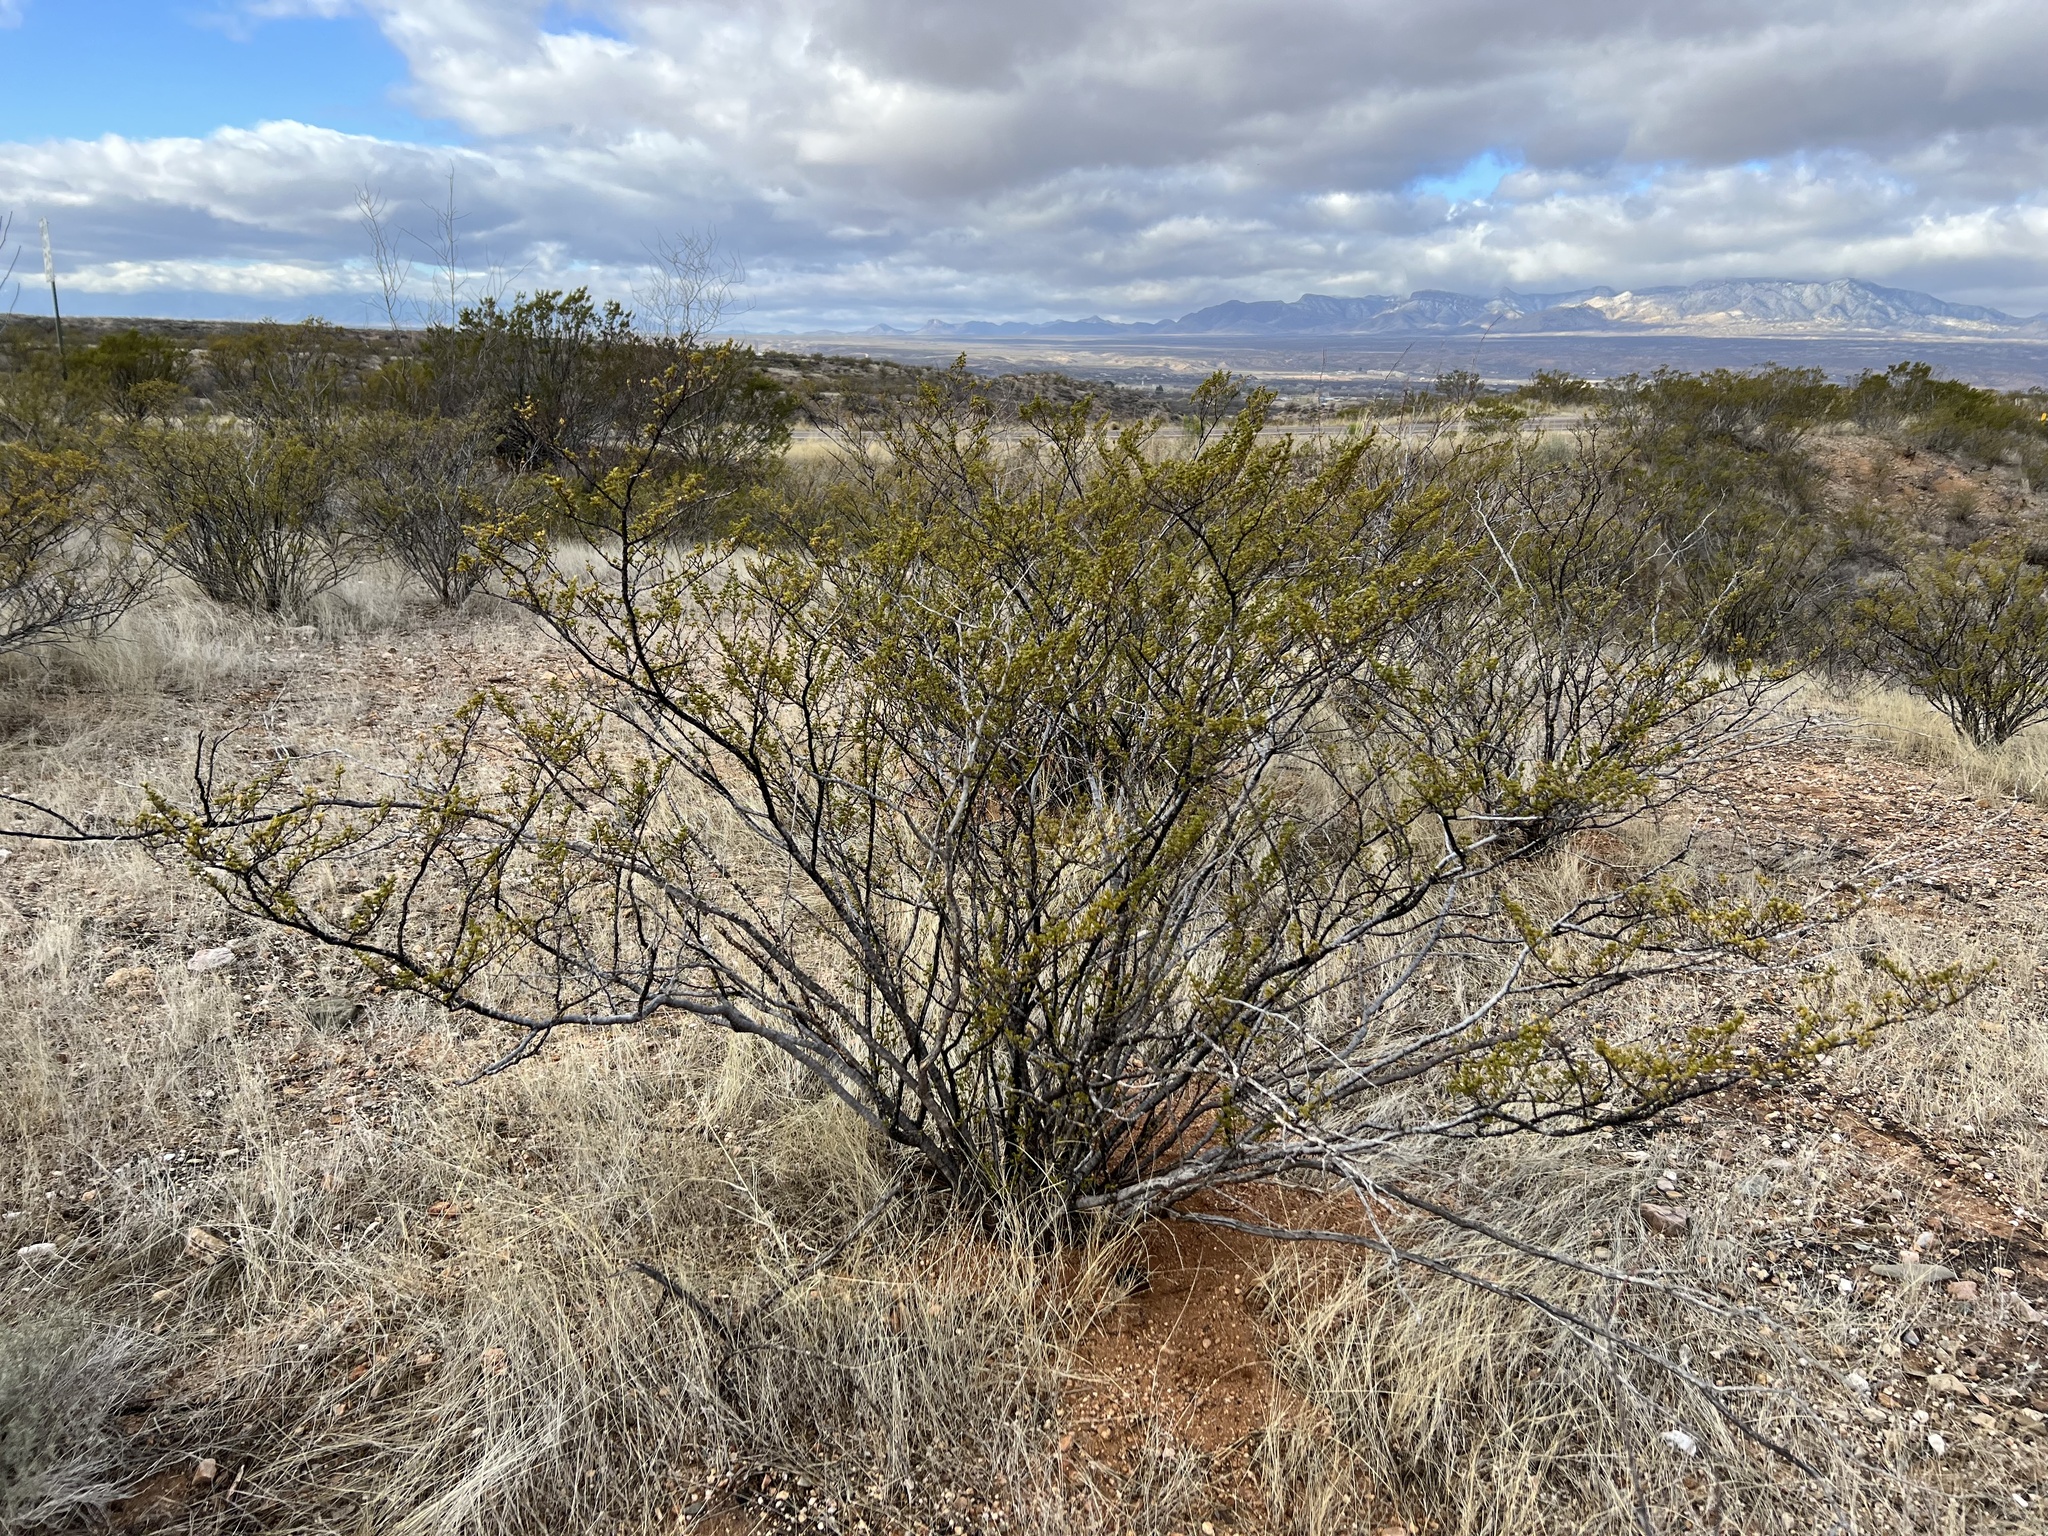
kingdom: Plantae
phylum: Tracheophyta
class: Magnoliopsida
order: Zygophyllales
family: Zygophyllaceae
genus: Larrea
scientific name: Larrea tridentata
